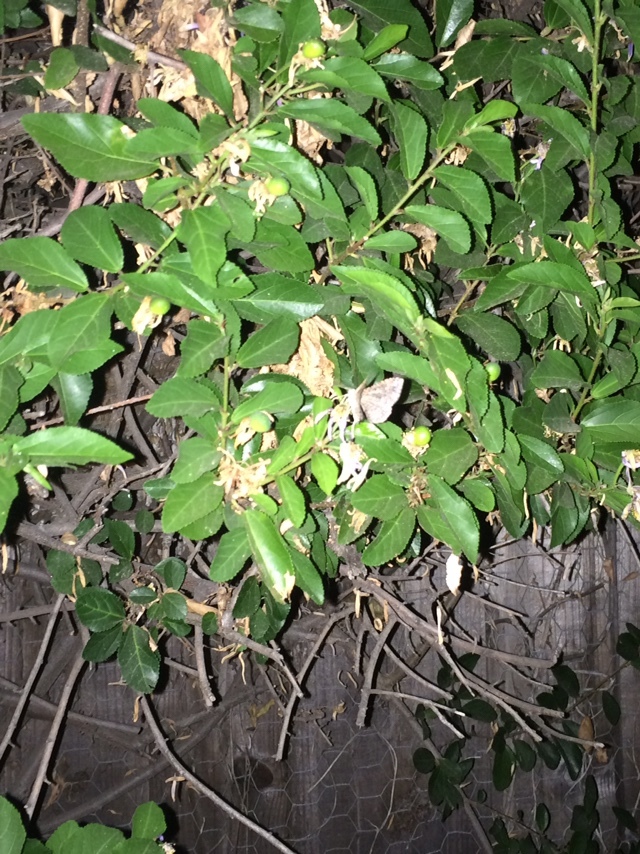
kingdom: Animalia
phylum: Arthropoda
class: Insecta
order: Lepidoptera
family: Geometridae
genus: Disclisioprocta
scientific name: Disclisioprocta stellata
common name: Somber carpet
